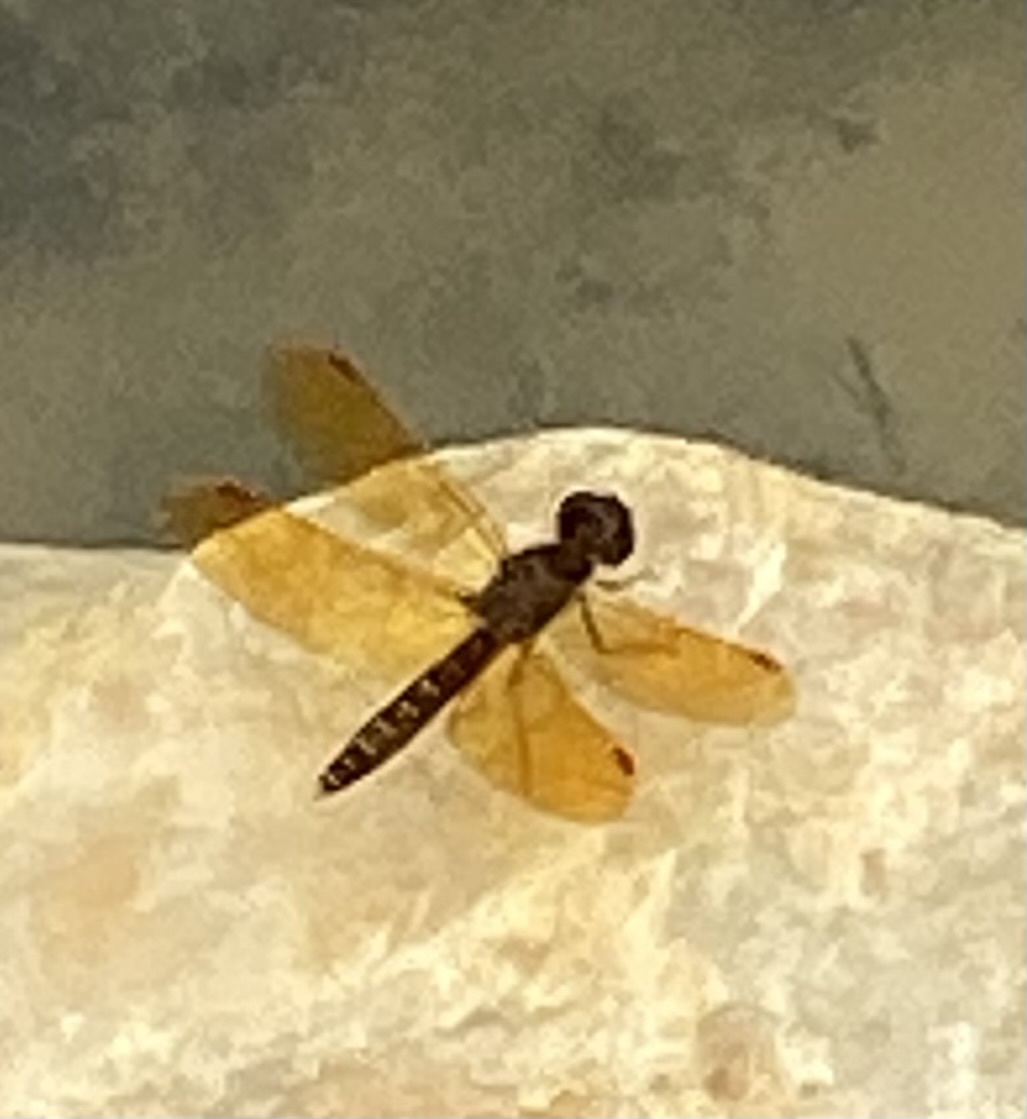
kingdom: Animalia
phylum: Arthropoda
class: Insecta
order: Odonata
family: Libellulidae
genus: Perithemis
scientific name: Perithemis tenera
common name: Eastern amberwing
